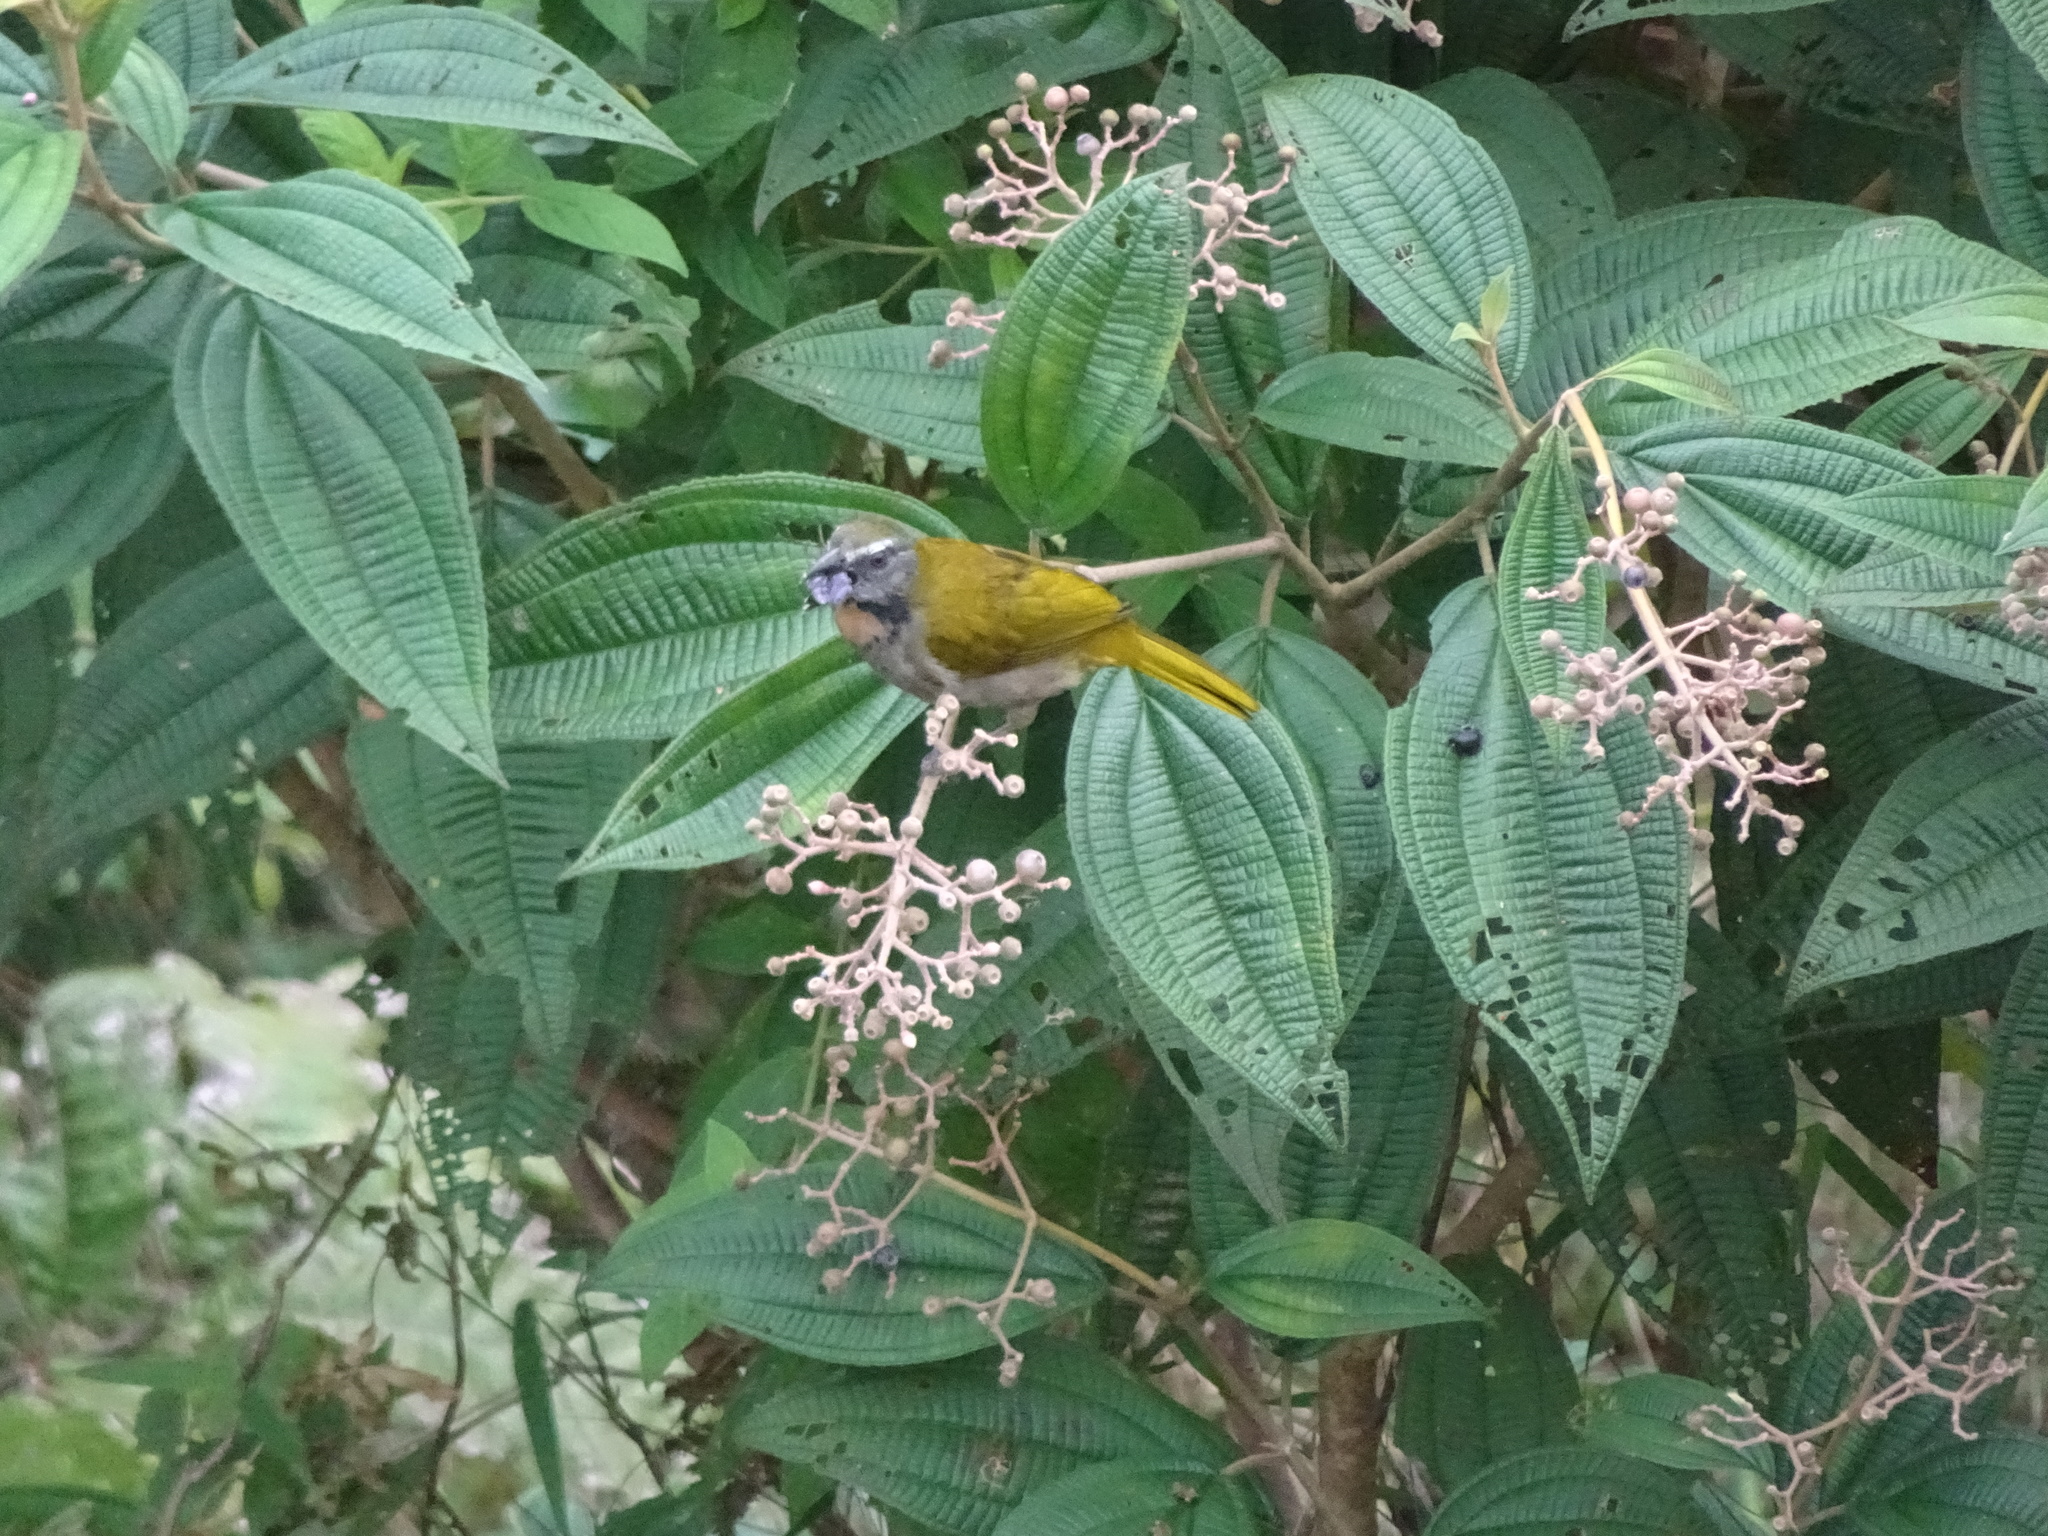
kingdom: Animalia
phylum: Chordata
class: Aves
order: Passeriformes
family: Thraupidae
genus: Saltator
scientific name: Saltator maximus
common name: Buff-throated saltator
